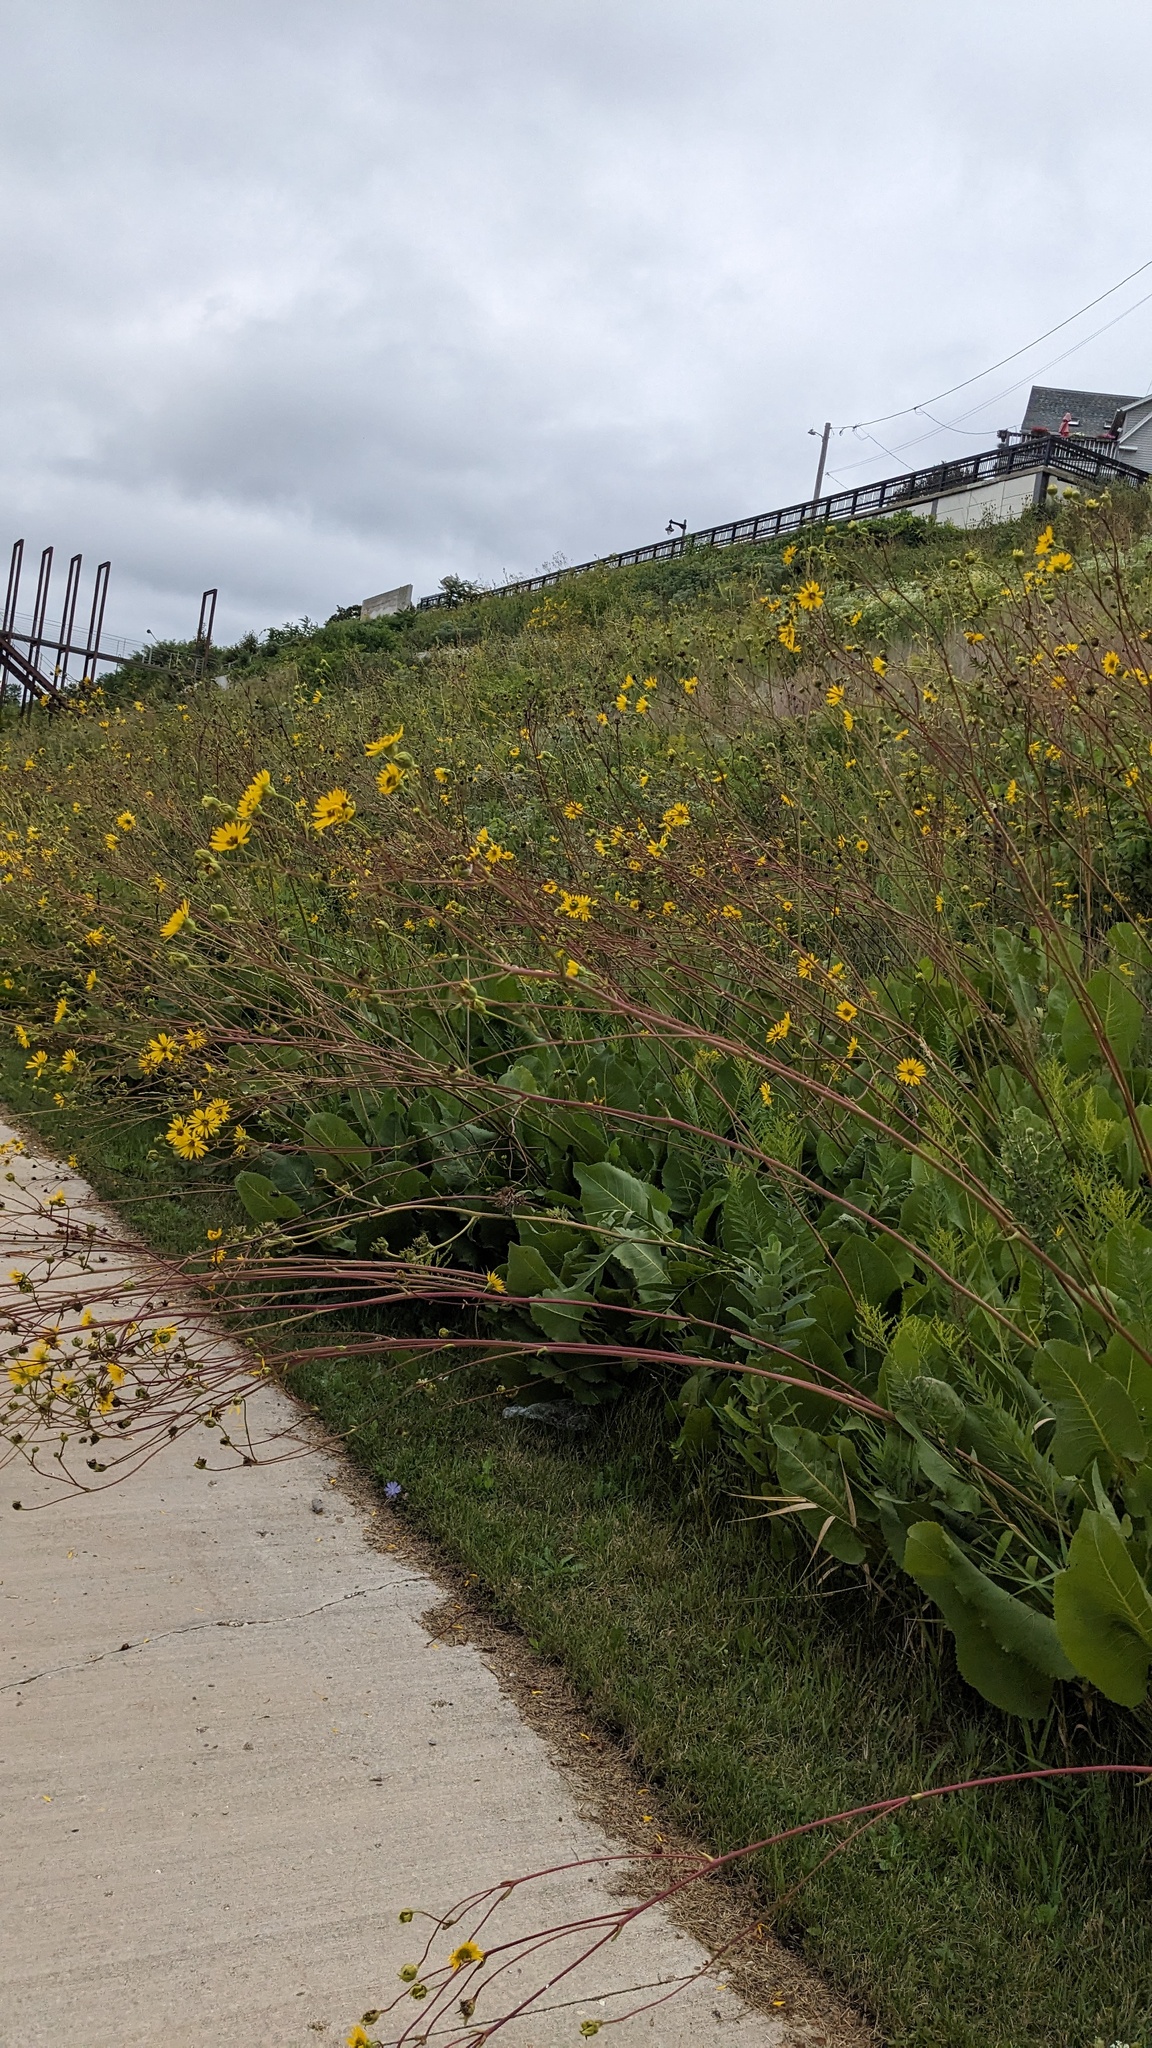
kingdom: Plantae
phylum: Tracheophyta
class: Magnoliopsida
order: Asterales
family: Asteraceae
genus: Silphium
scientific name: Silphium terebinthinaceum
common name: Basal-leaf rosinweed
